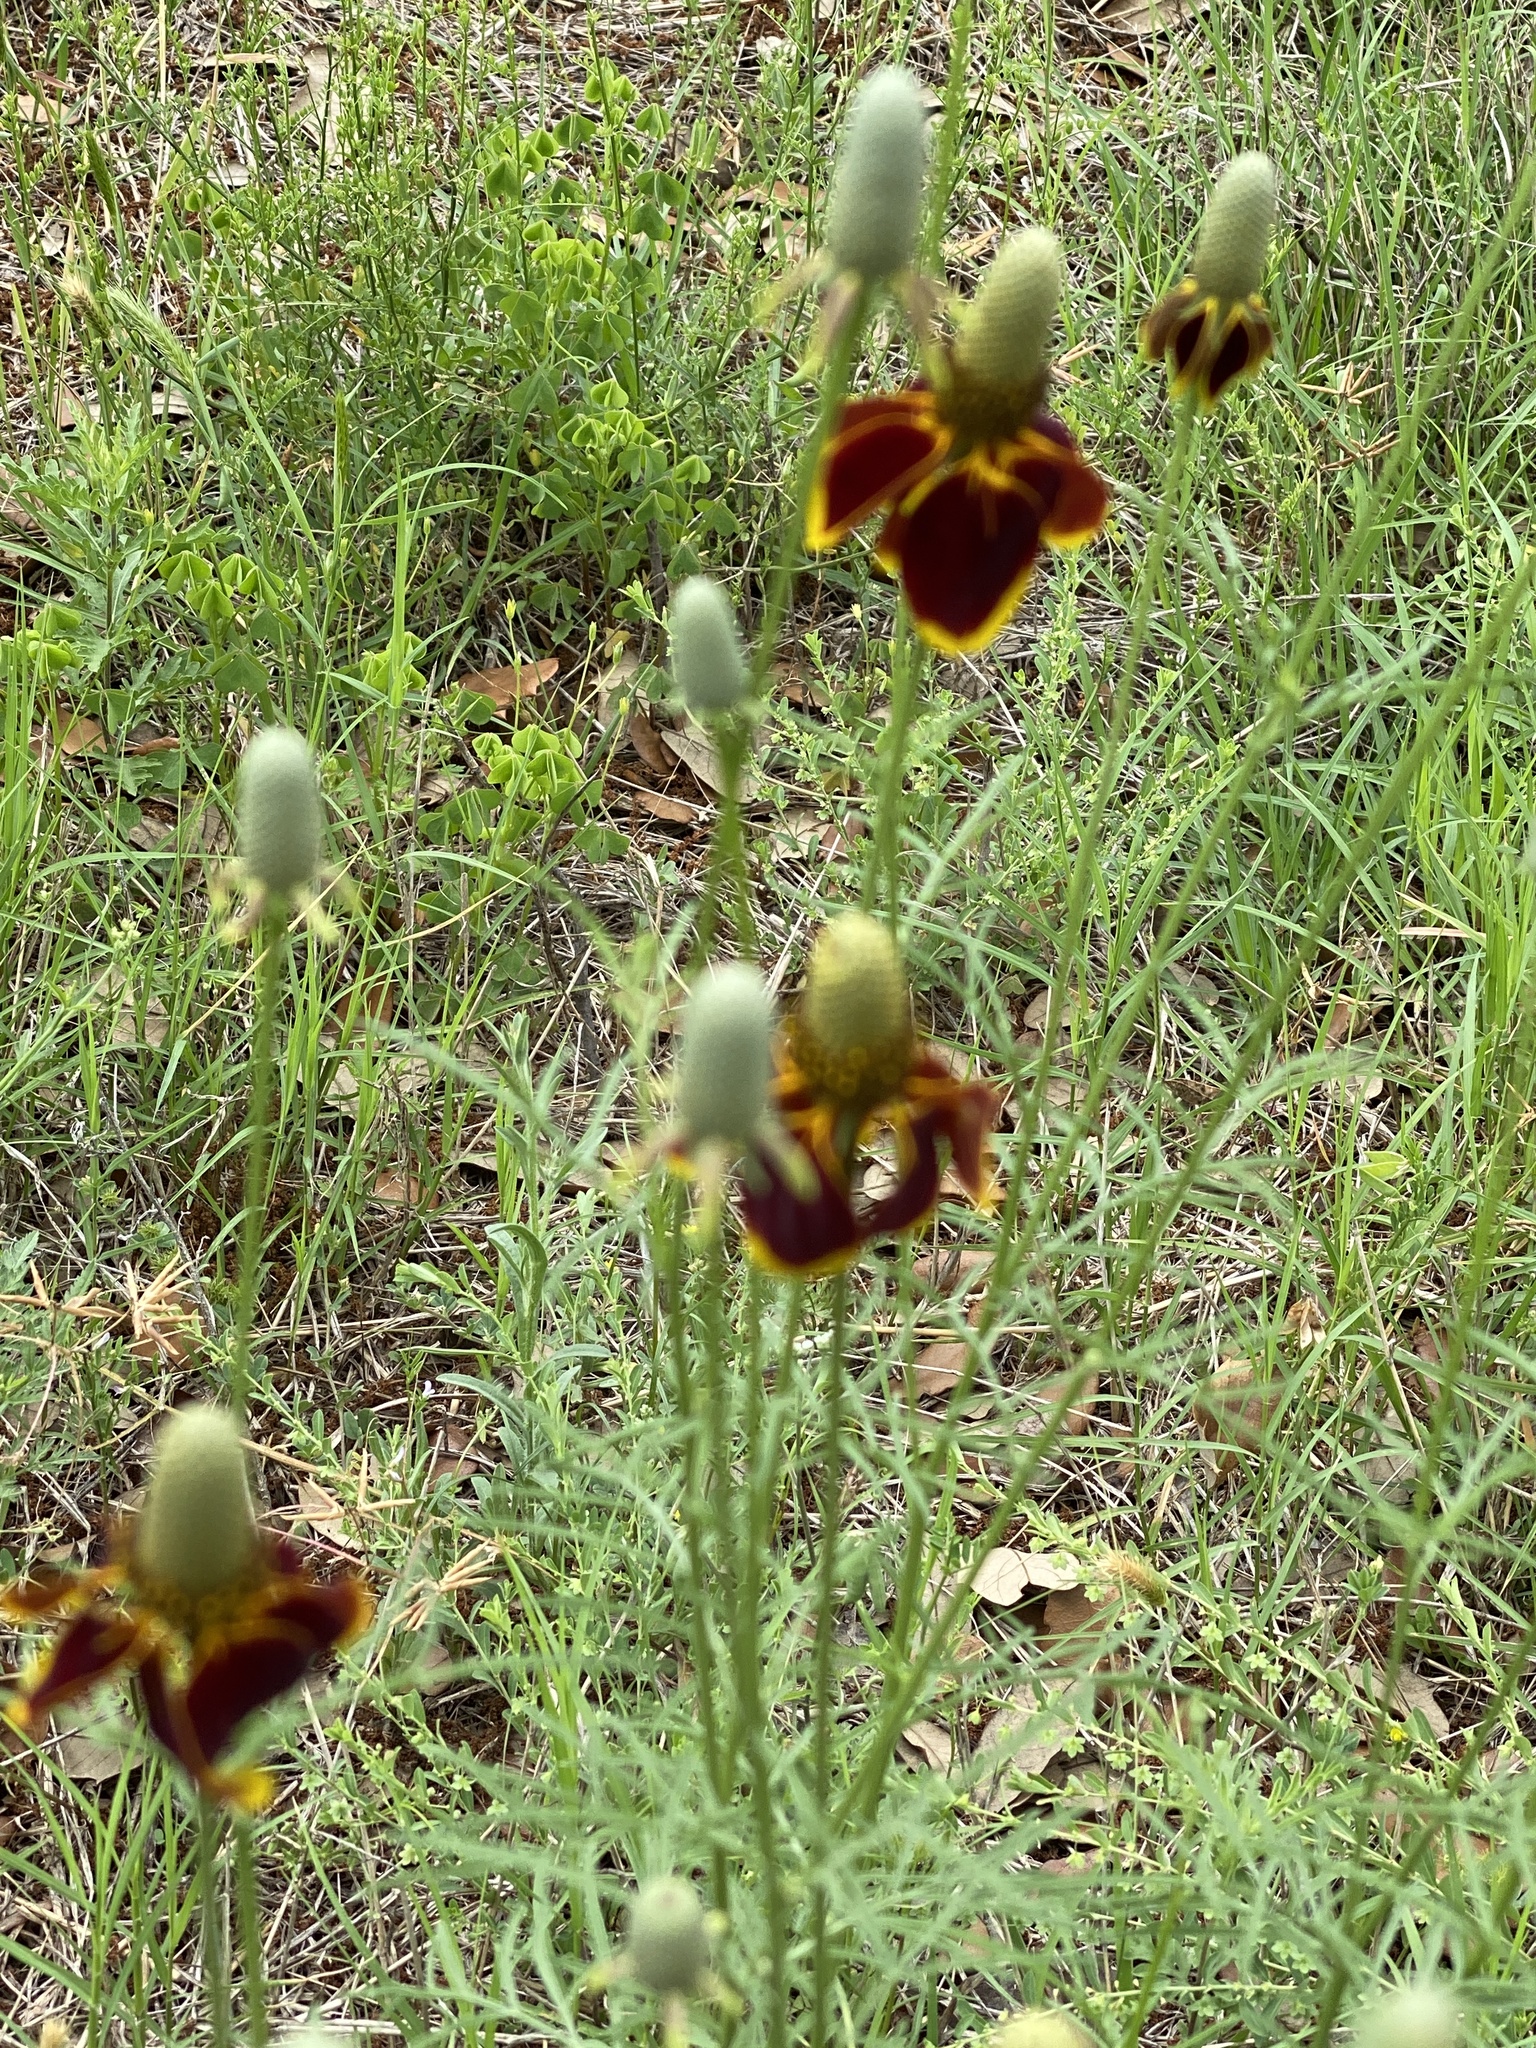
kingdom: Plantae
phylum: Tracheophyta
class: Magnoliopsida
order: Asterales
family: Asteraceae
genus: Ratibida
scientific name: Ratibida columnifera
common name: Prairie coneflower
